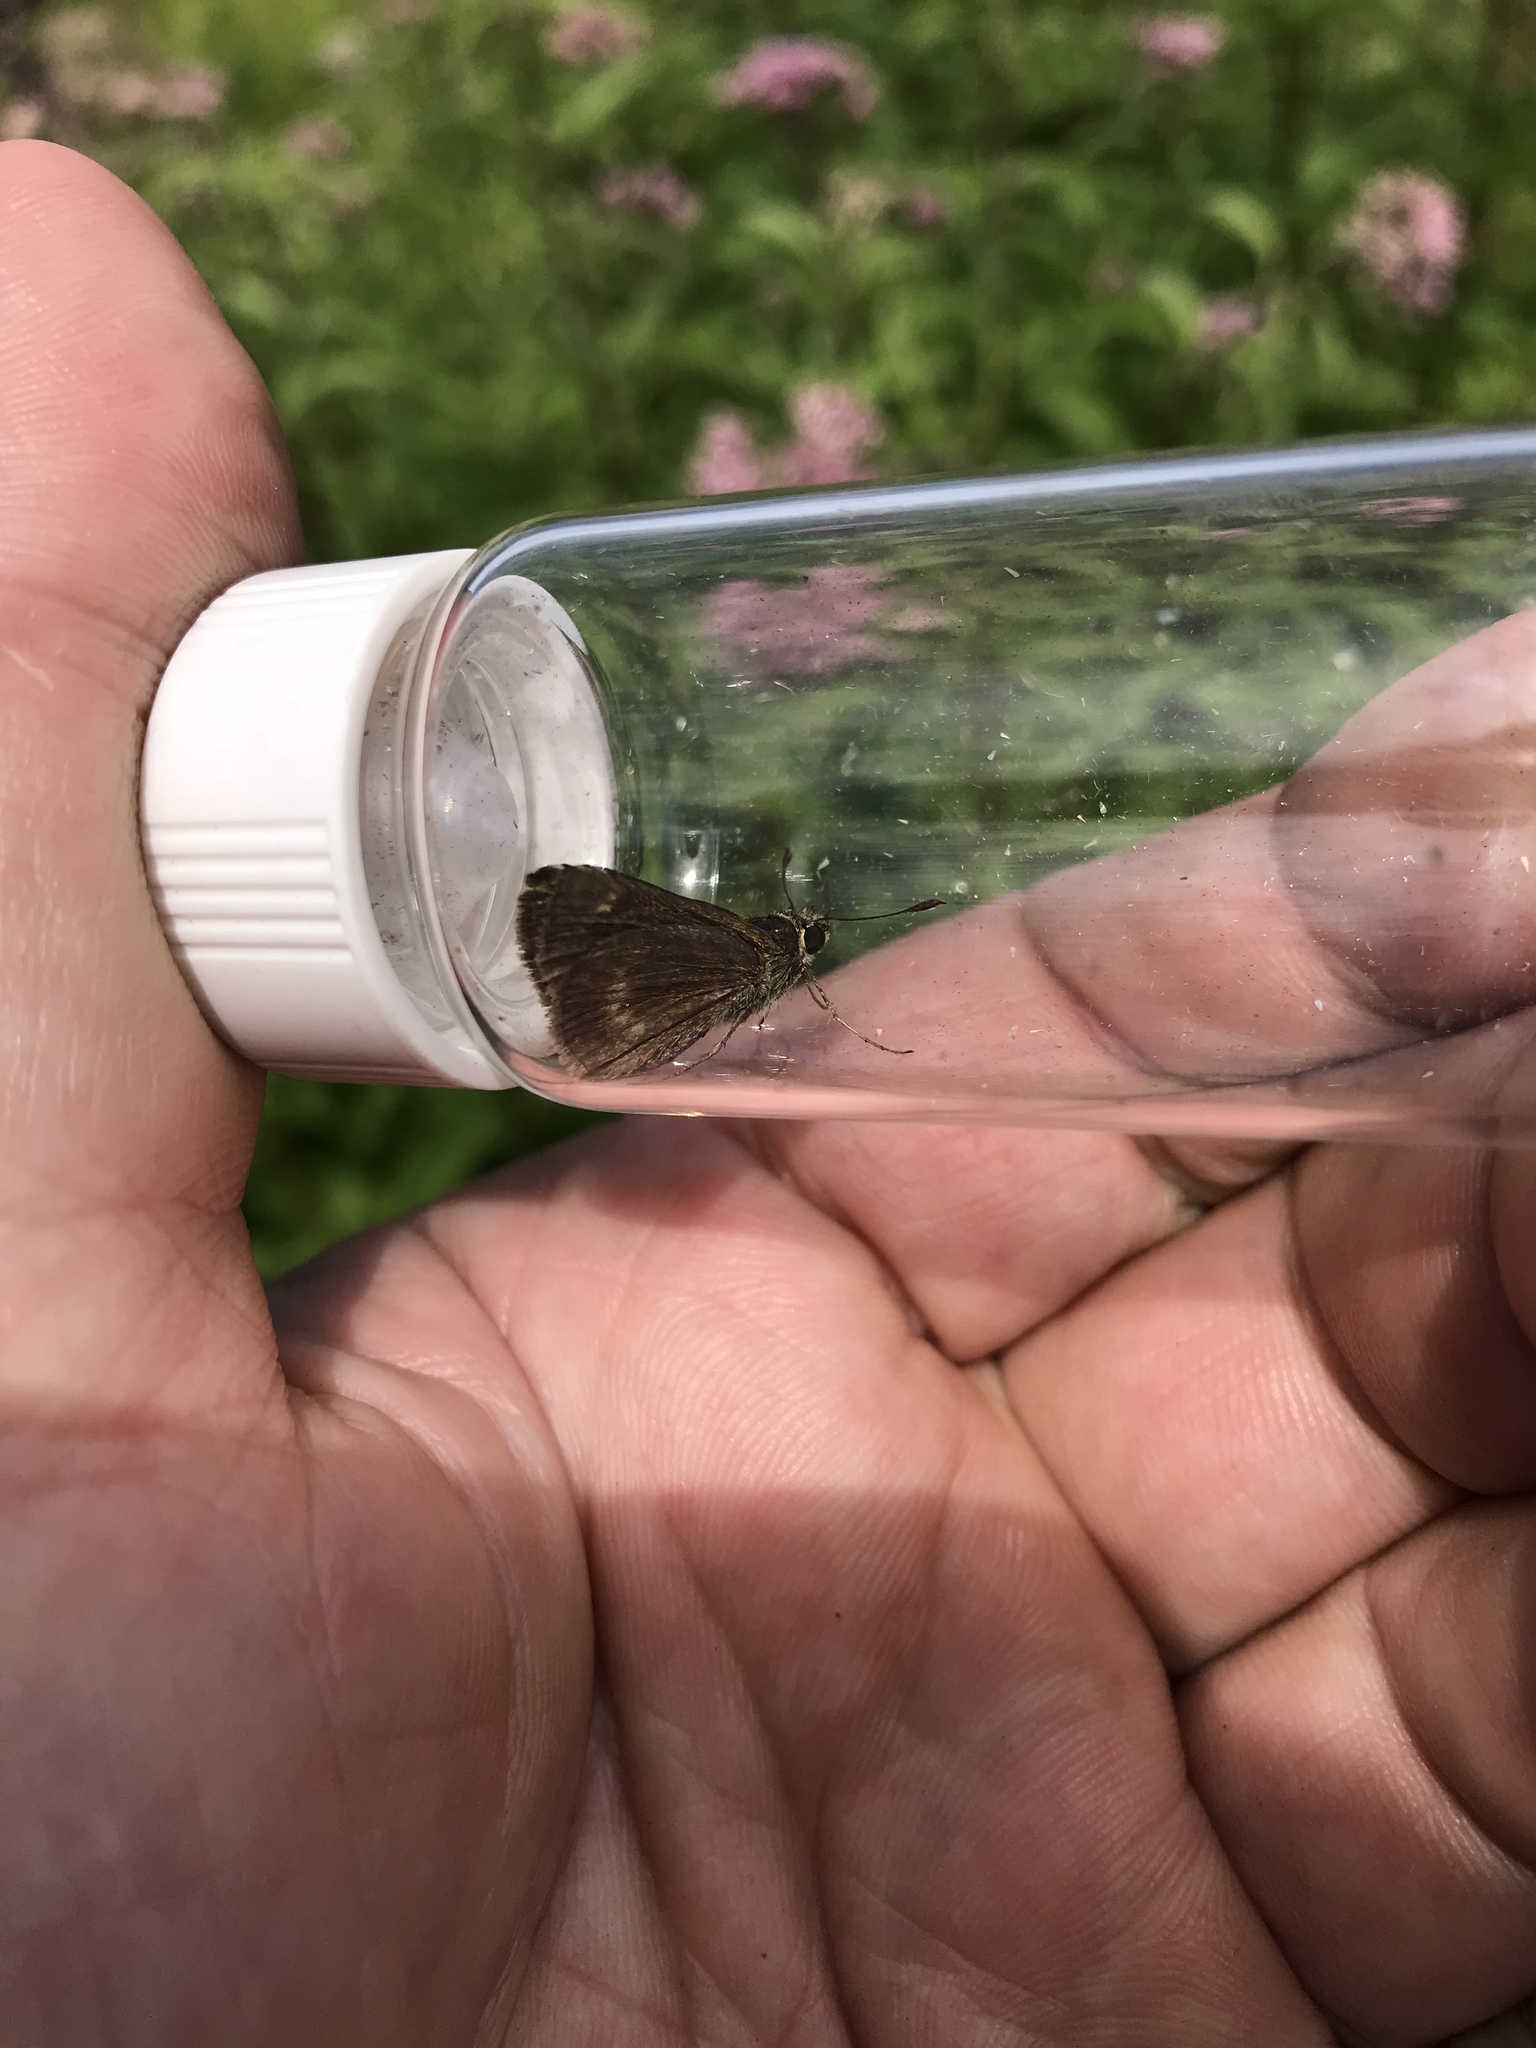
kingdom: Animalia
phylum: Arthropoda
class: Insecta
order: Lepidoptera
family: Hesperiidae
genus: Polites
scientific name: Polites egeremet
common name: Northern broken-dash
